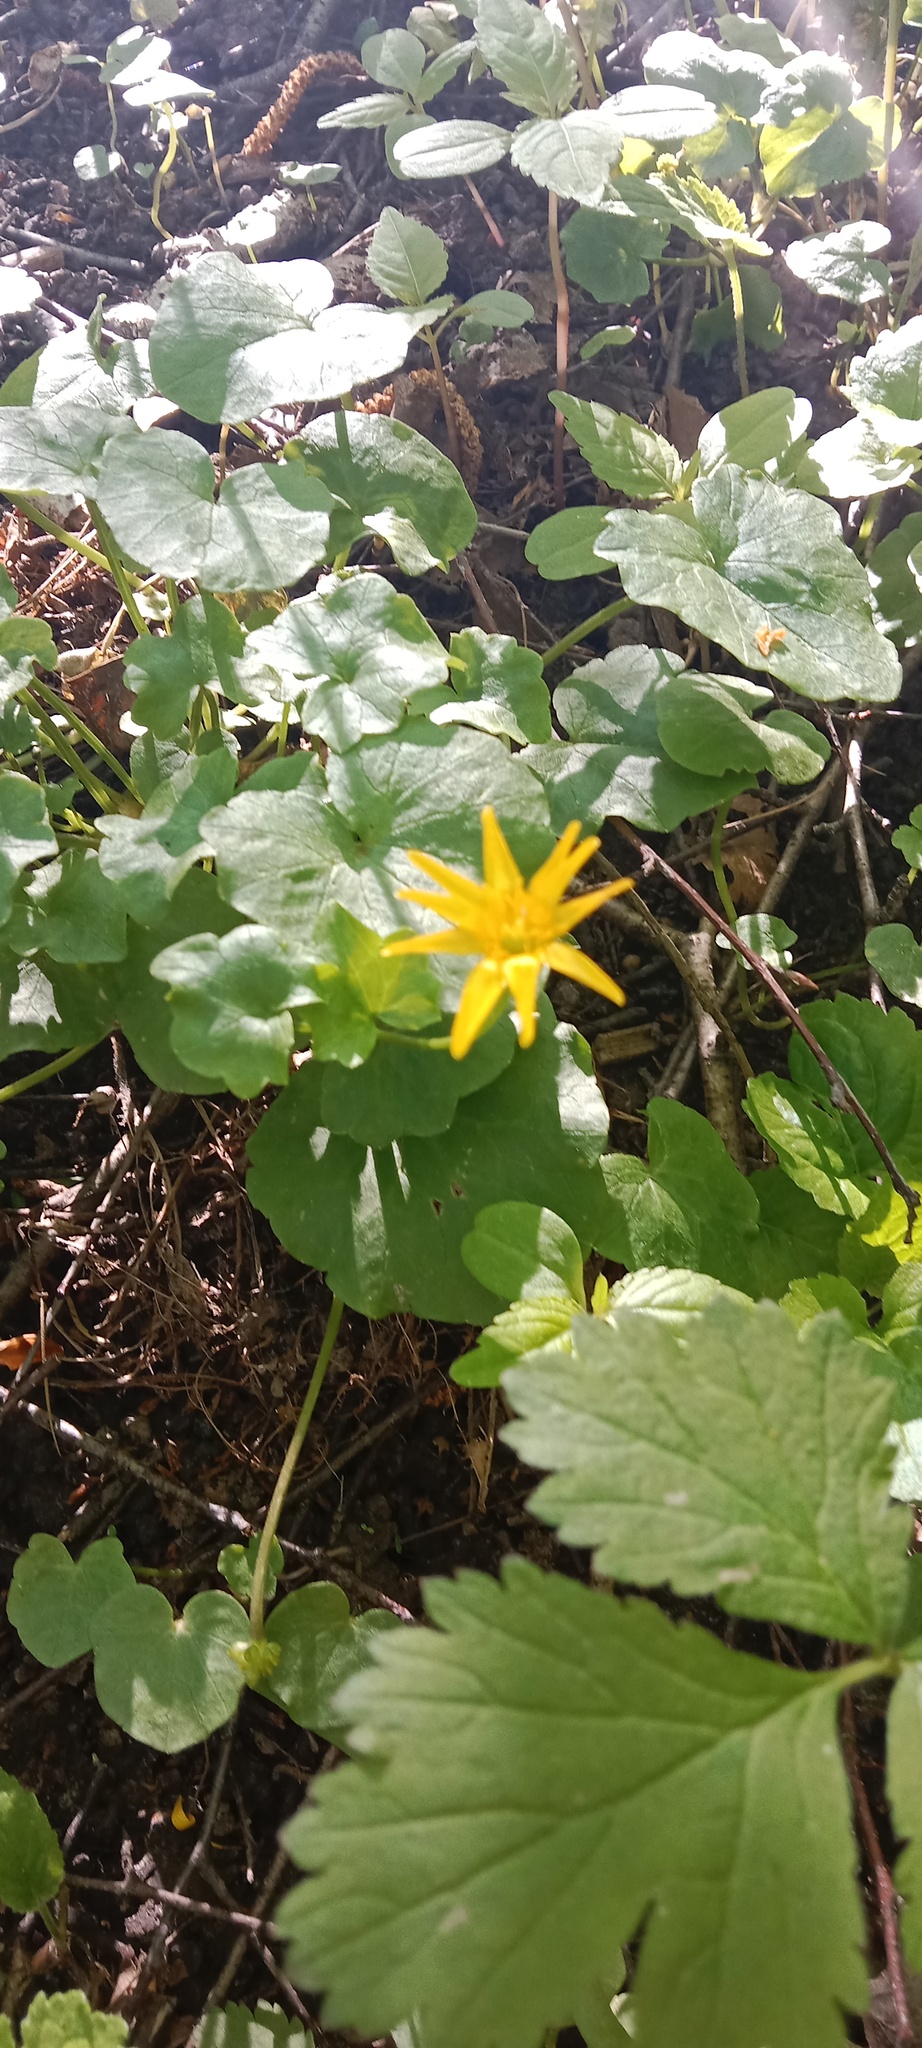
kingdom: Plantae
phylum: Tracheophyta
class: Magnoliopsida
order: Ranunculales
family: Ranunculaceae
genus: Ficaria
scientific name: Ficaria verna
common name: Lesser celandine
